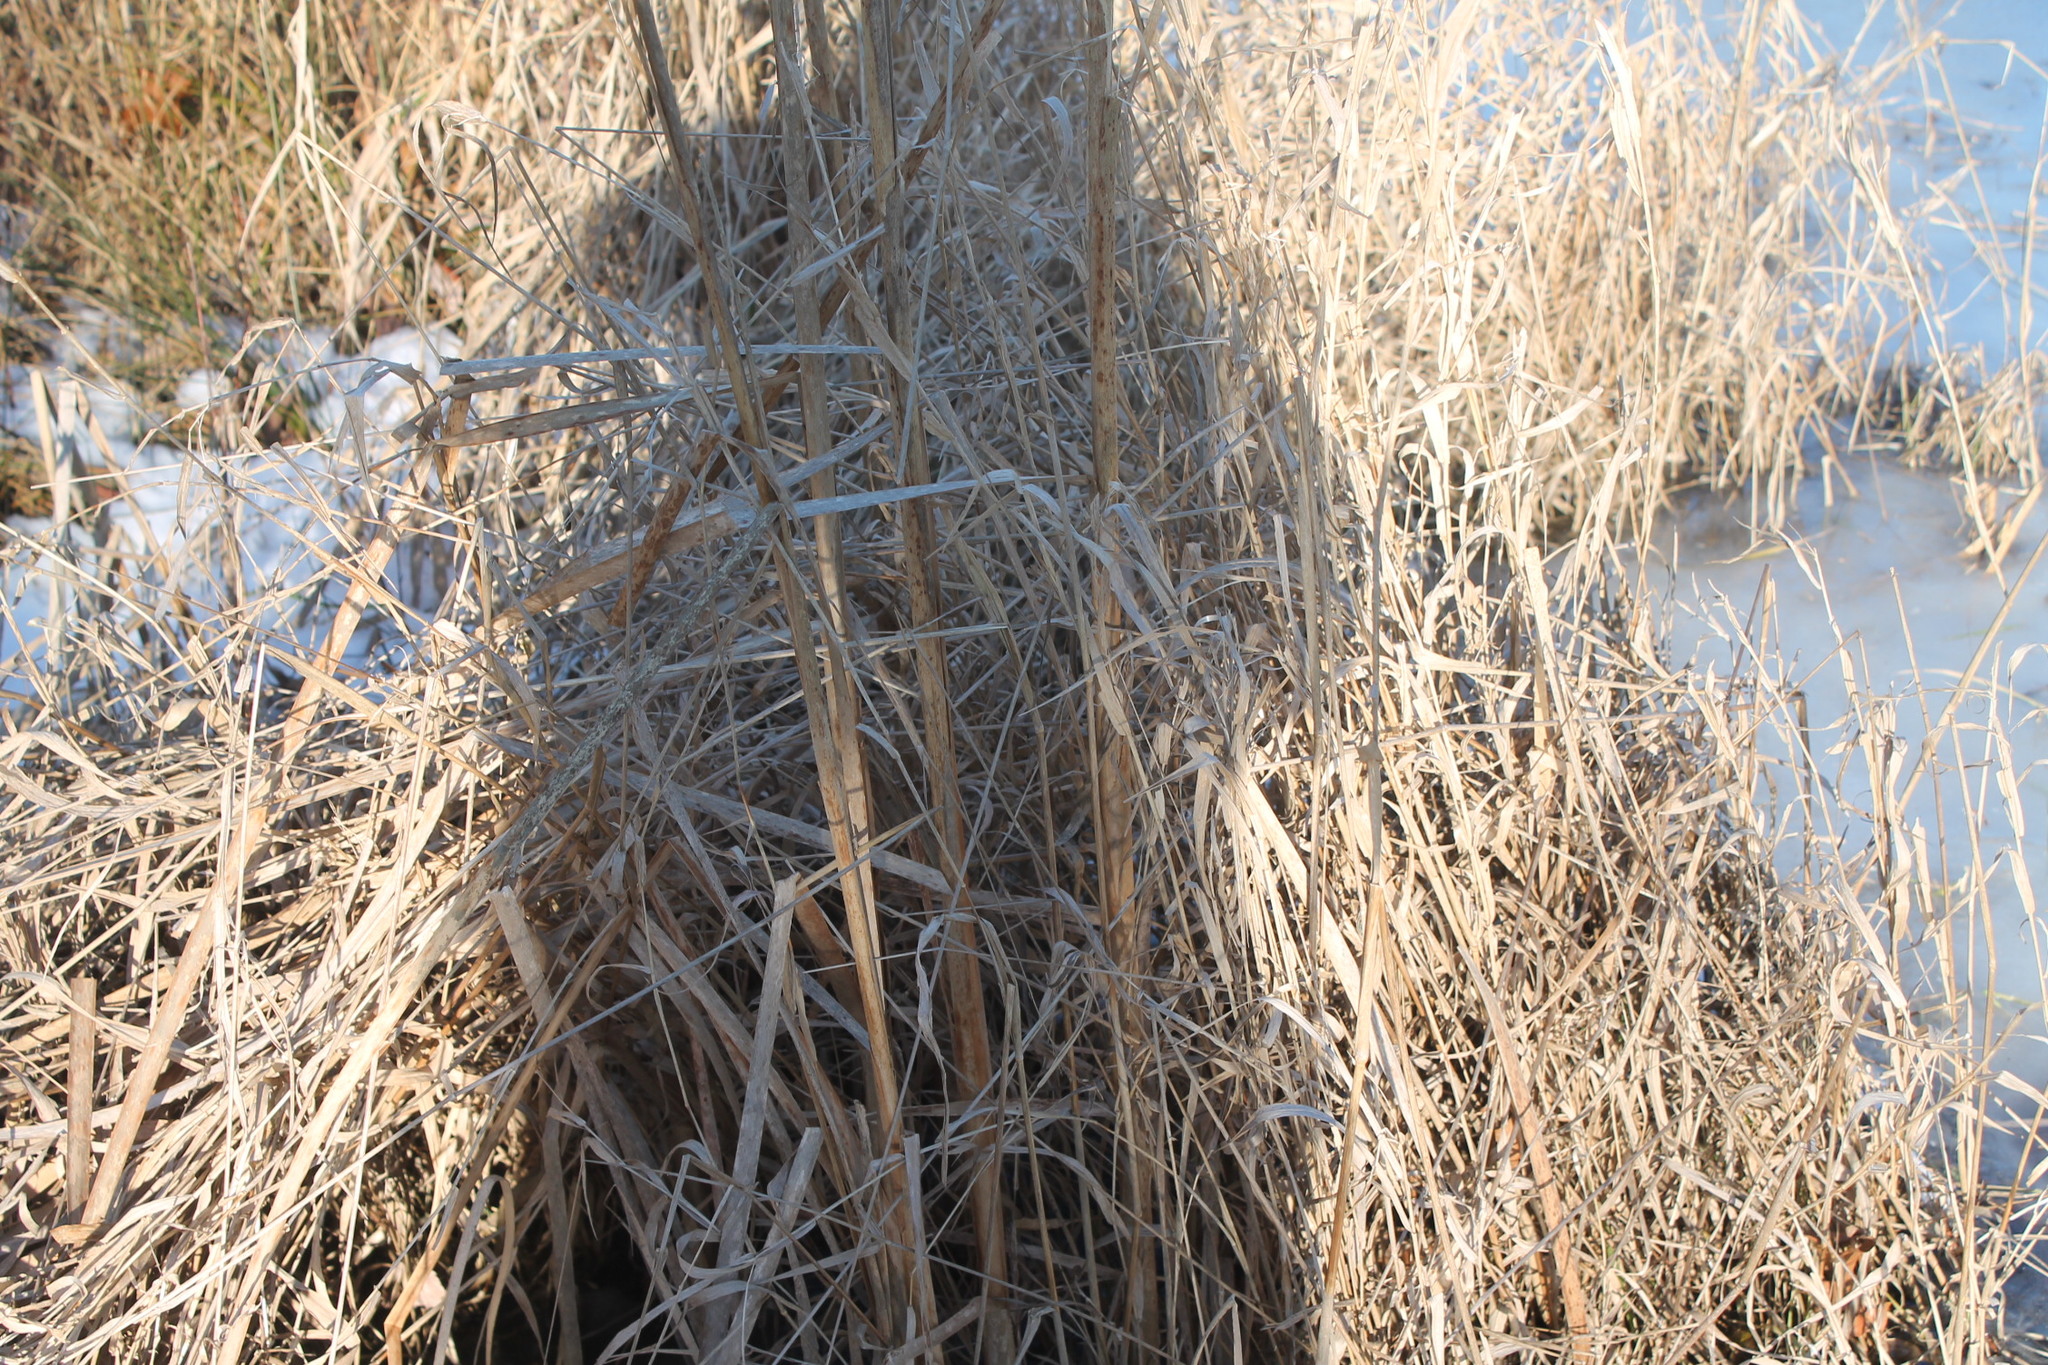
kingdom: Plantae
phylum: Tracheophyta
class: Liliopsida
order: Poales
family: Typhaceae
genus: Typha
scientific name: Typha latifolia
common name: Broadleaf cattail
